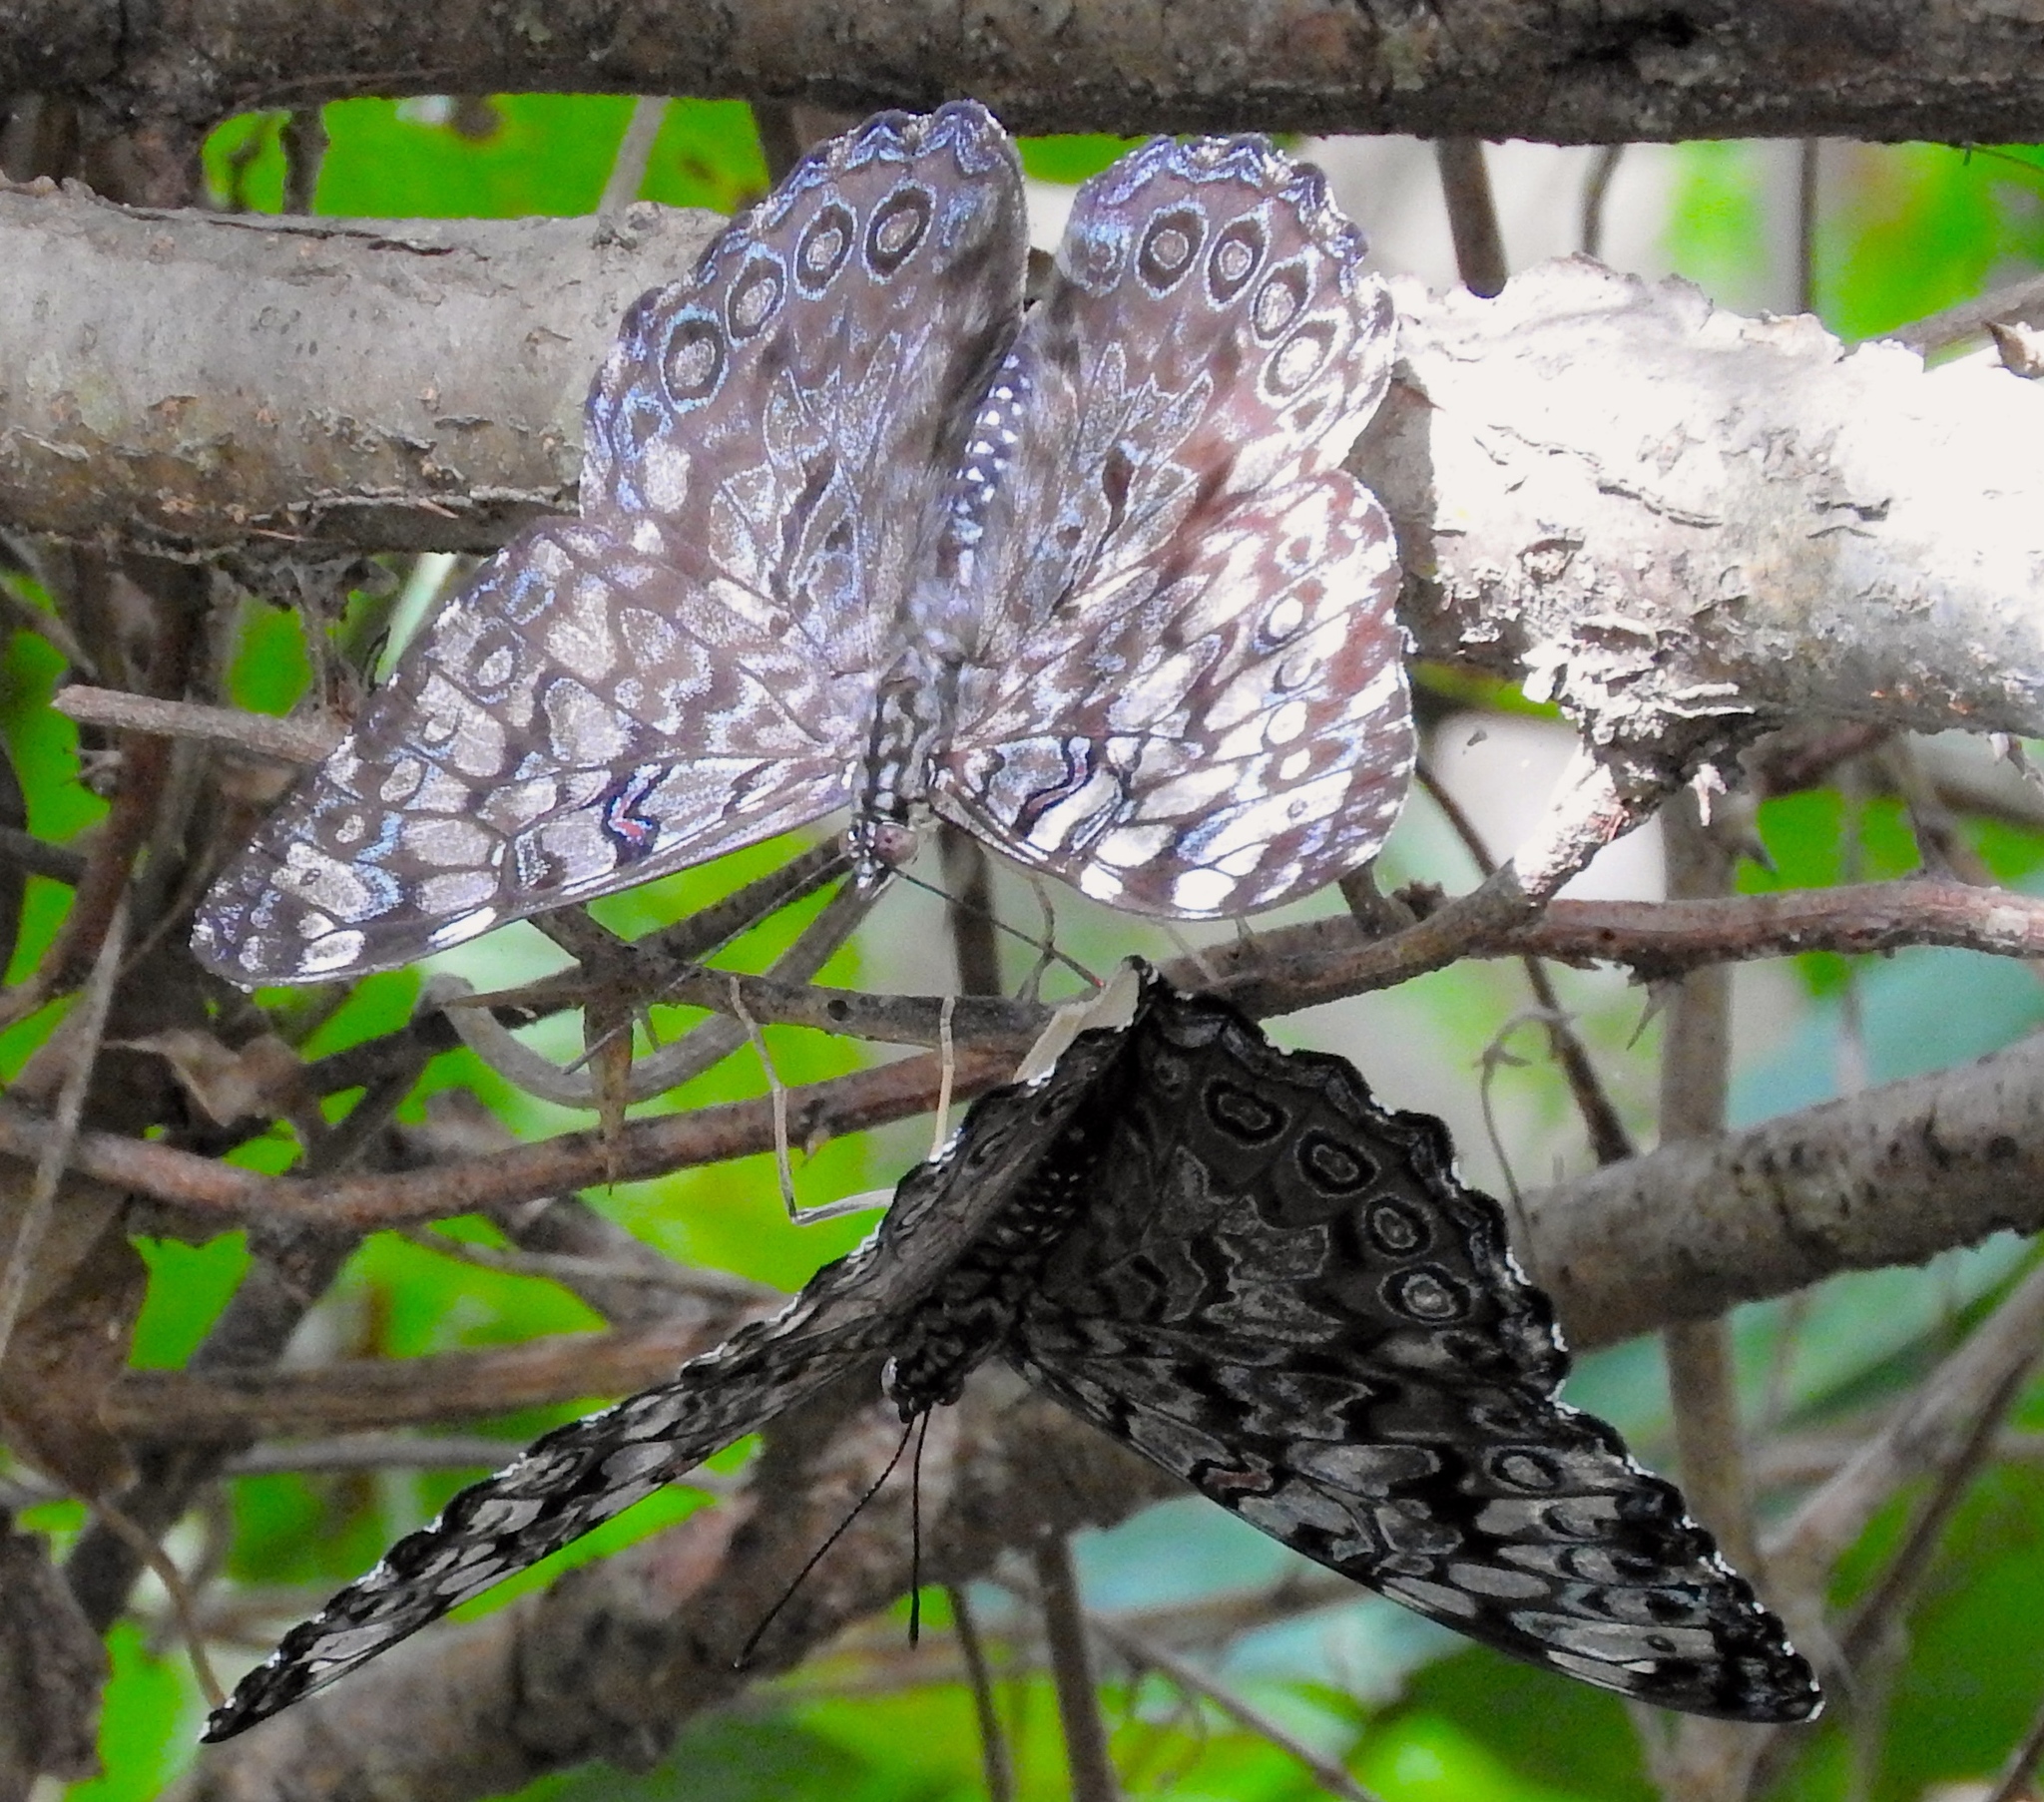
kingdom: Animalia
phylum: Arthropoda
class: Insecta
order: Lepidoptera
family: Nymphalidae
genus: Hamadryas
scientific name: Hamadryas guatemalena
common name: Guatemalan cracker
